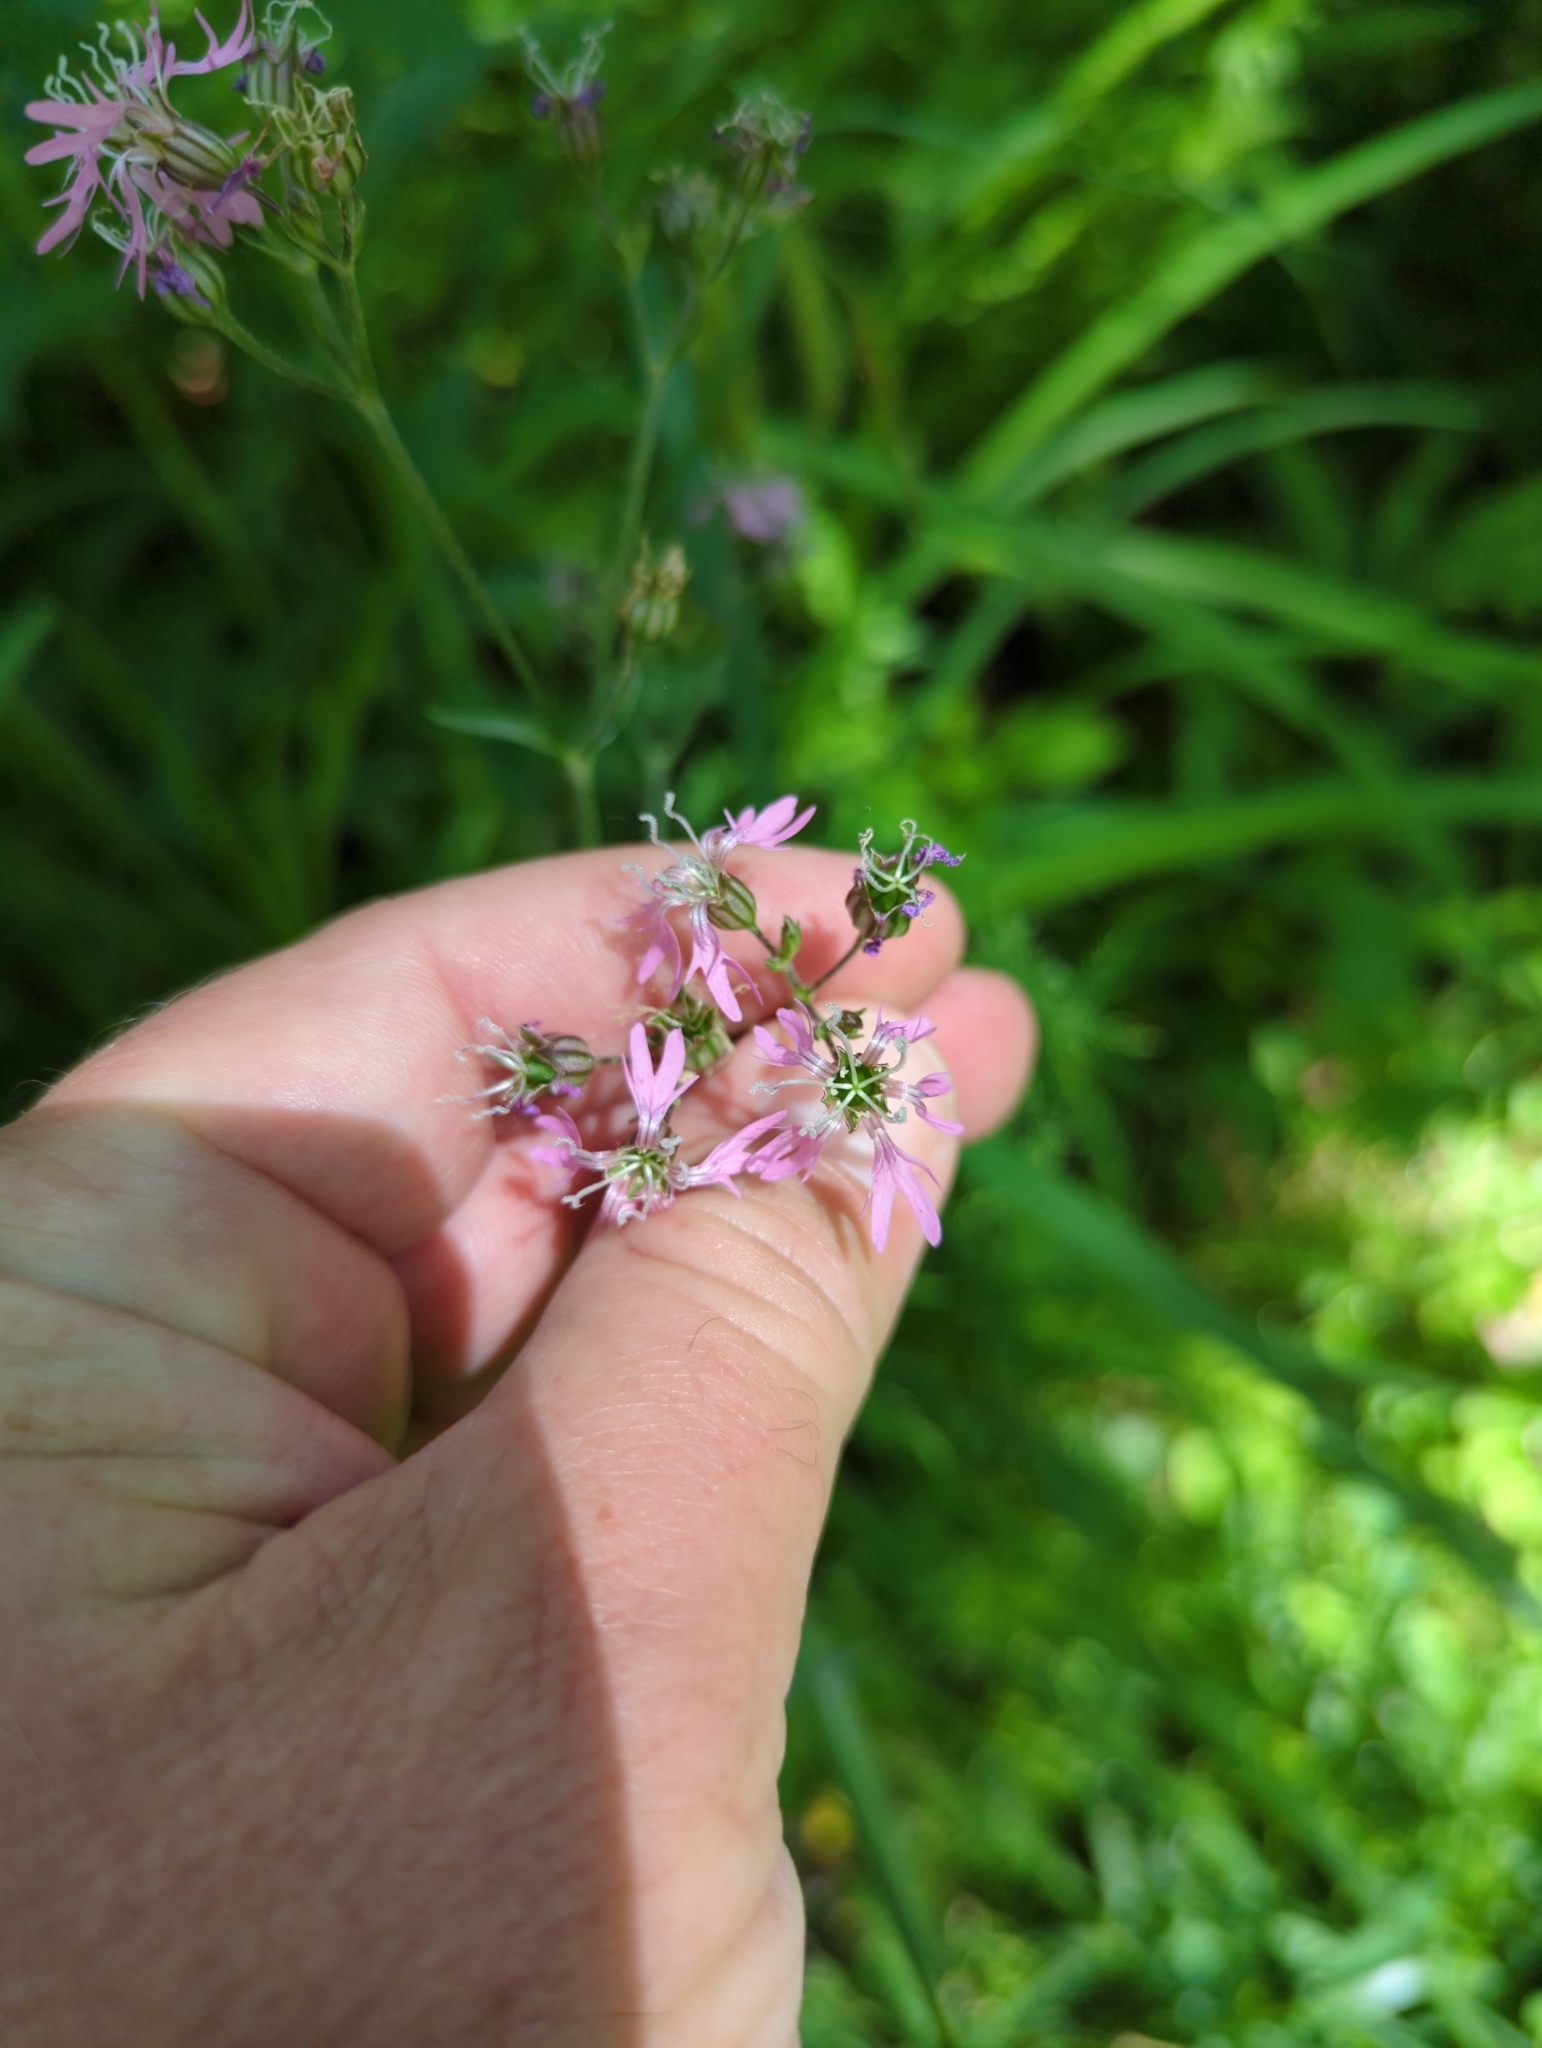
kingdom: Plantae
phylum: Tracheophyta
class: Magnoliopsida
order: Caryophyllales
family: Caryophyllaceae
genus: Silene
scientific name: Silene flos-cuculi
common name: Ragged-robin
